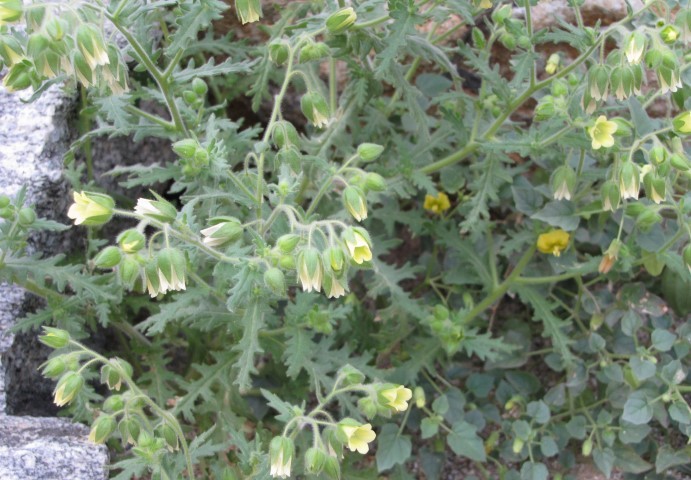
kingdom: Plantae
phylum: Tracheophyta
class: Magnoliopsida
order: Boraginales
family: Hydrophyllaceae
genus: Emmenanthe
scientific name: Emmenanthe penduliflora
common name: Whispering-bells
